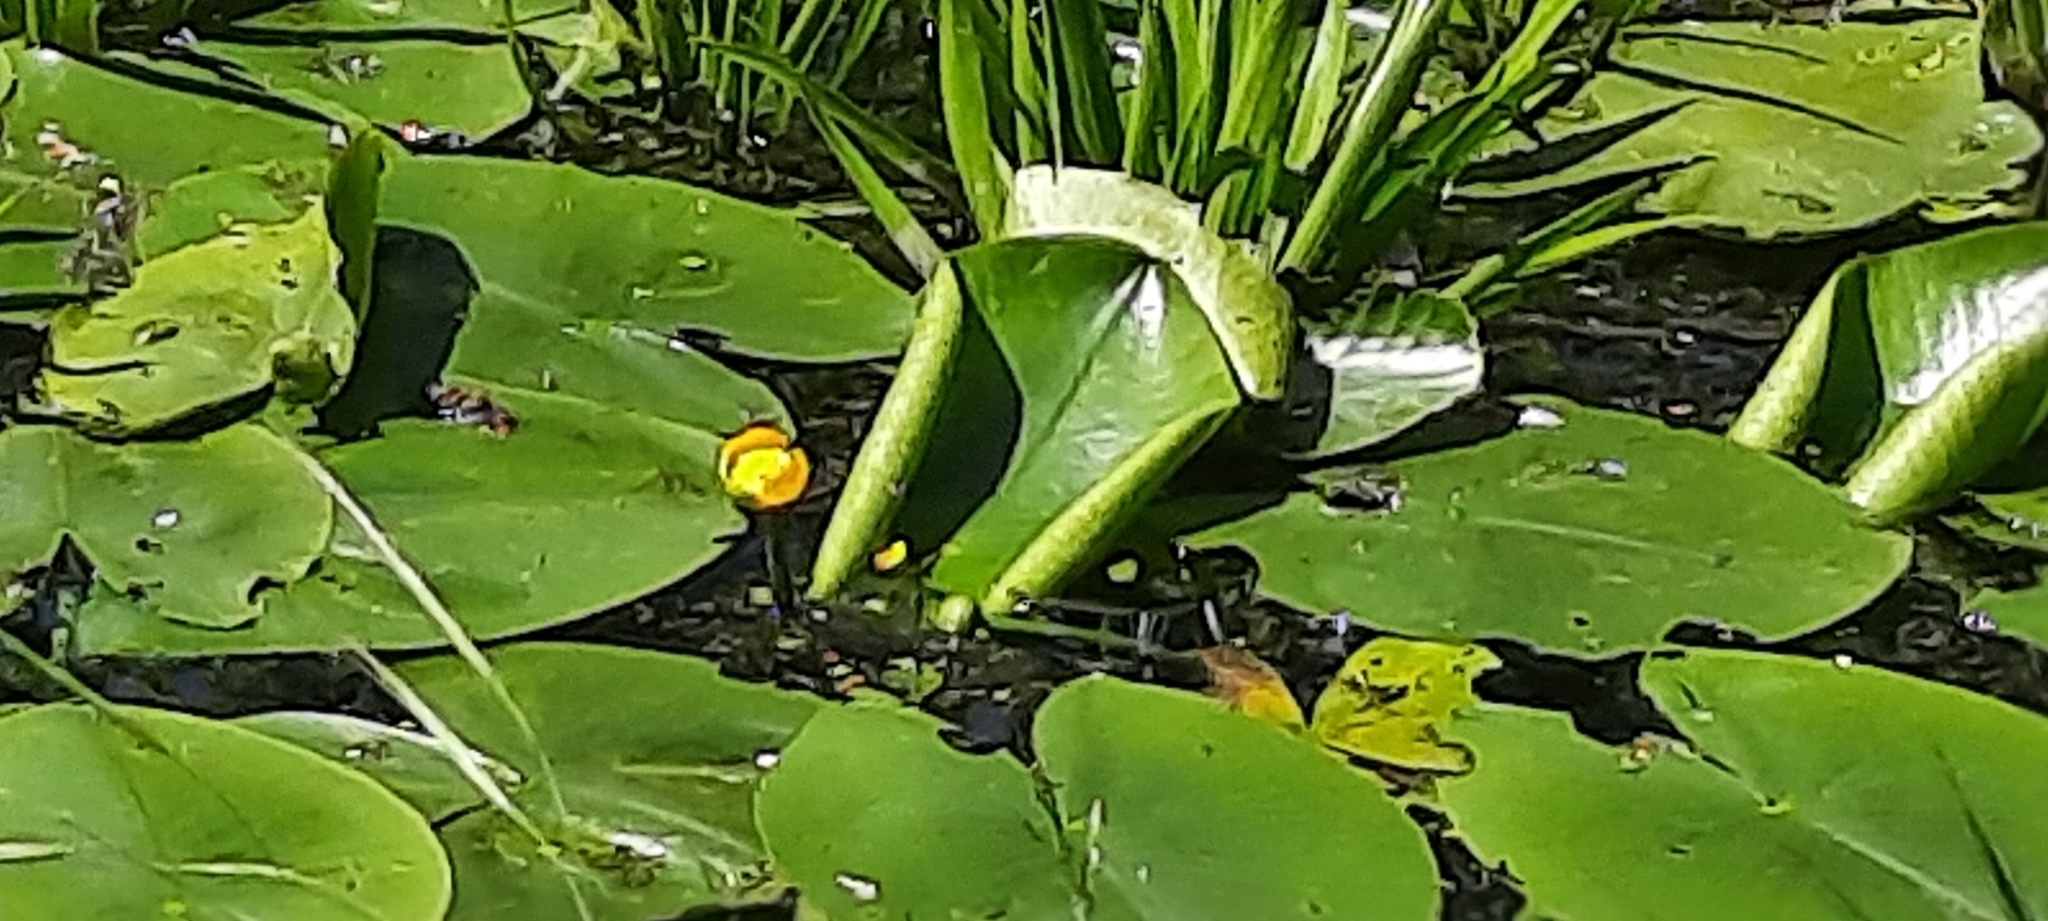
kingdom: Plantae
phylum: Tracheophyta
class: Magnoliopsida
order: Nymphaeales
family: Nymphaeaceae
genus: Nuphar
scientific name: Nuphar lutea
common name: Yellow water-lily
